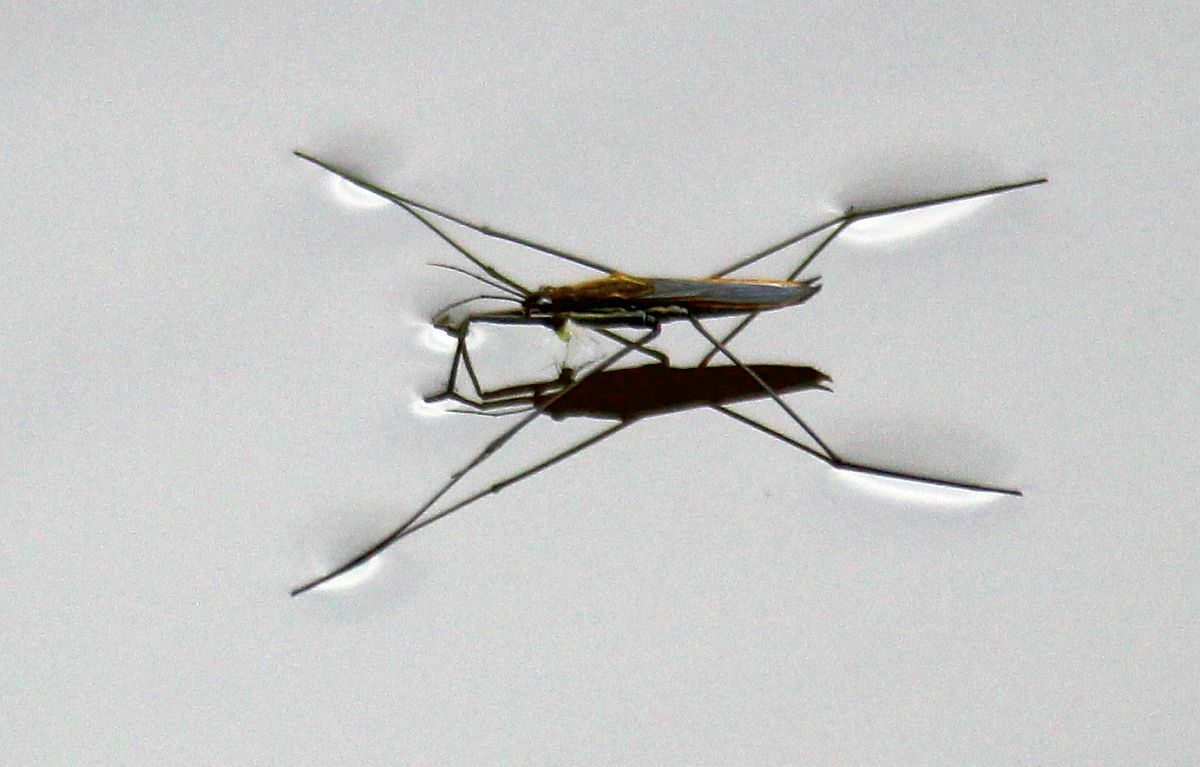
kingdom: Animalia
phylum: Arthropoda
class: Insecta
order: Hemiptera
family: Gerridae
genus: Aquarius
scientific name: Aquarius paludum
